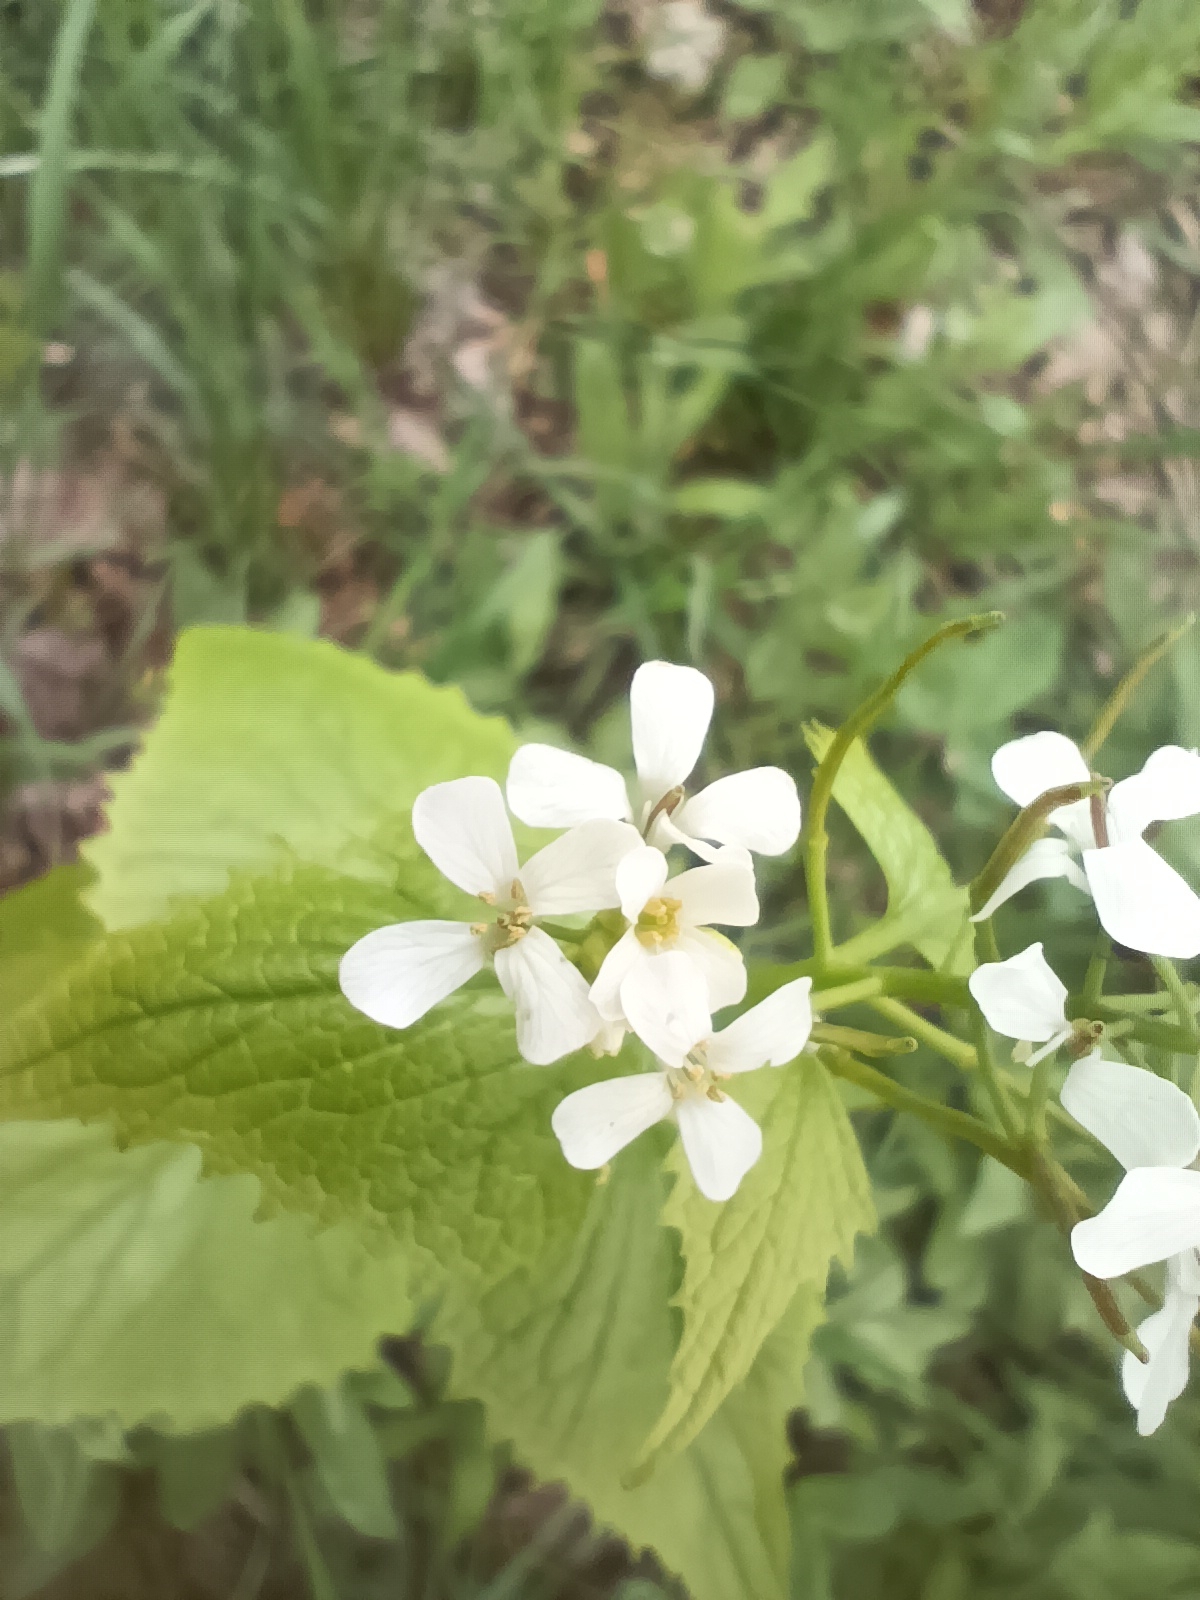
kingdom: Plantae
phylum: Tracheophyta
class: Magnoliopsida
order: Brassicales
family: Brassicaceae
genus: Alliaria
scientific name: Alliaria petiolata
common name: Garlic mustard
